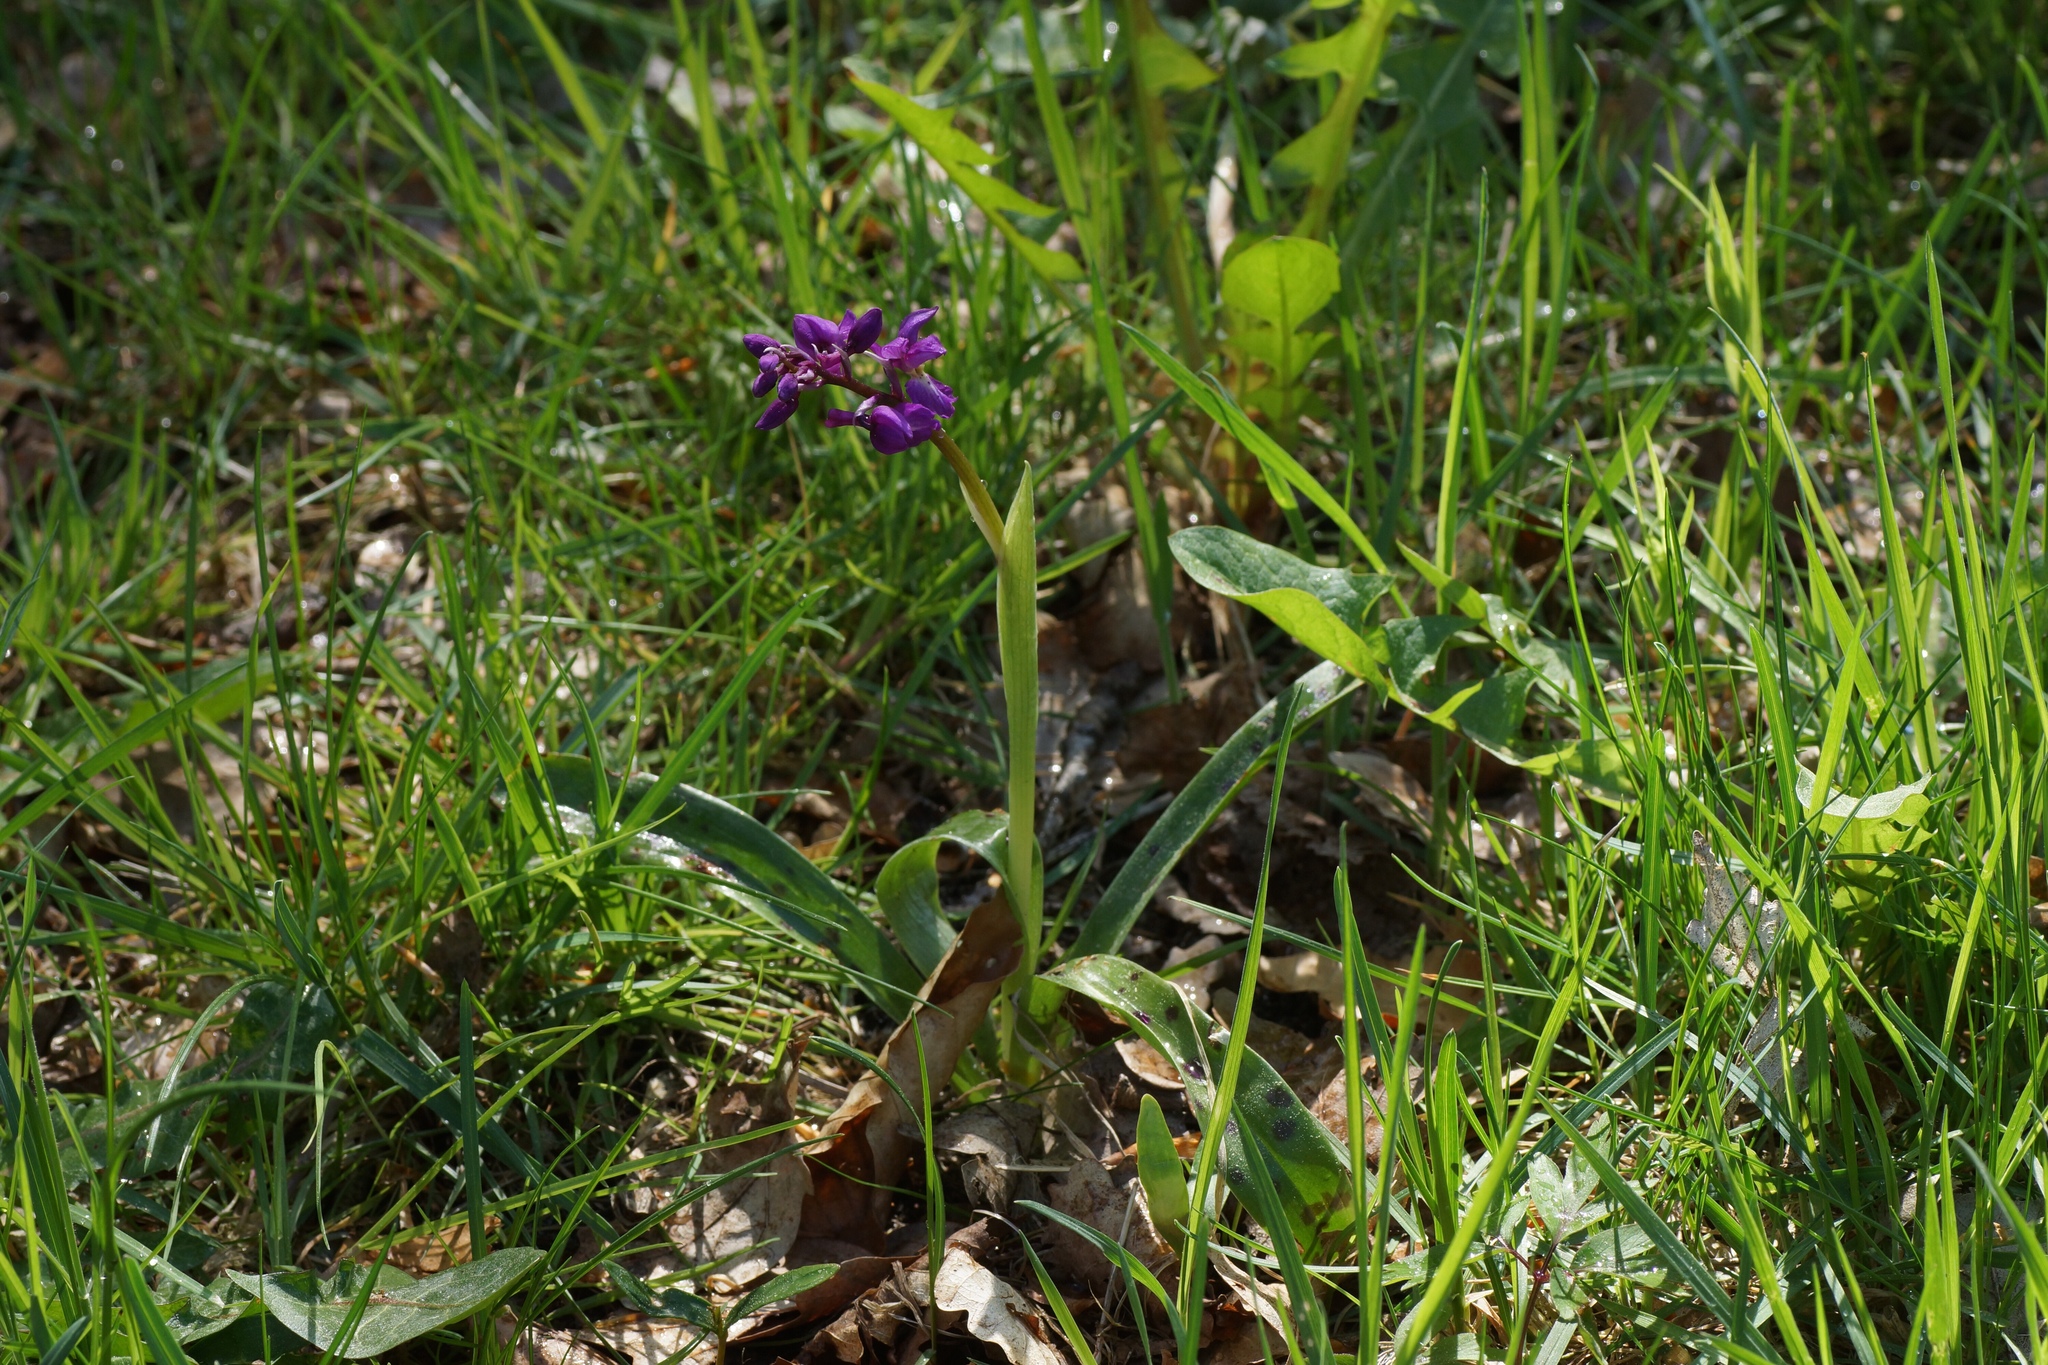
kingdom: Plantae
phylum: Tracheophyta
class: Liliopsida
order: Asparagales
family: Orchidaceae
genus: Orchis
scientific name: Orchis mascula
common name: Early-purple orchid
